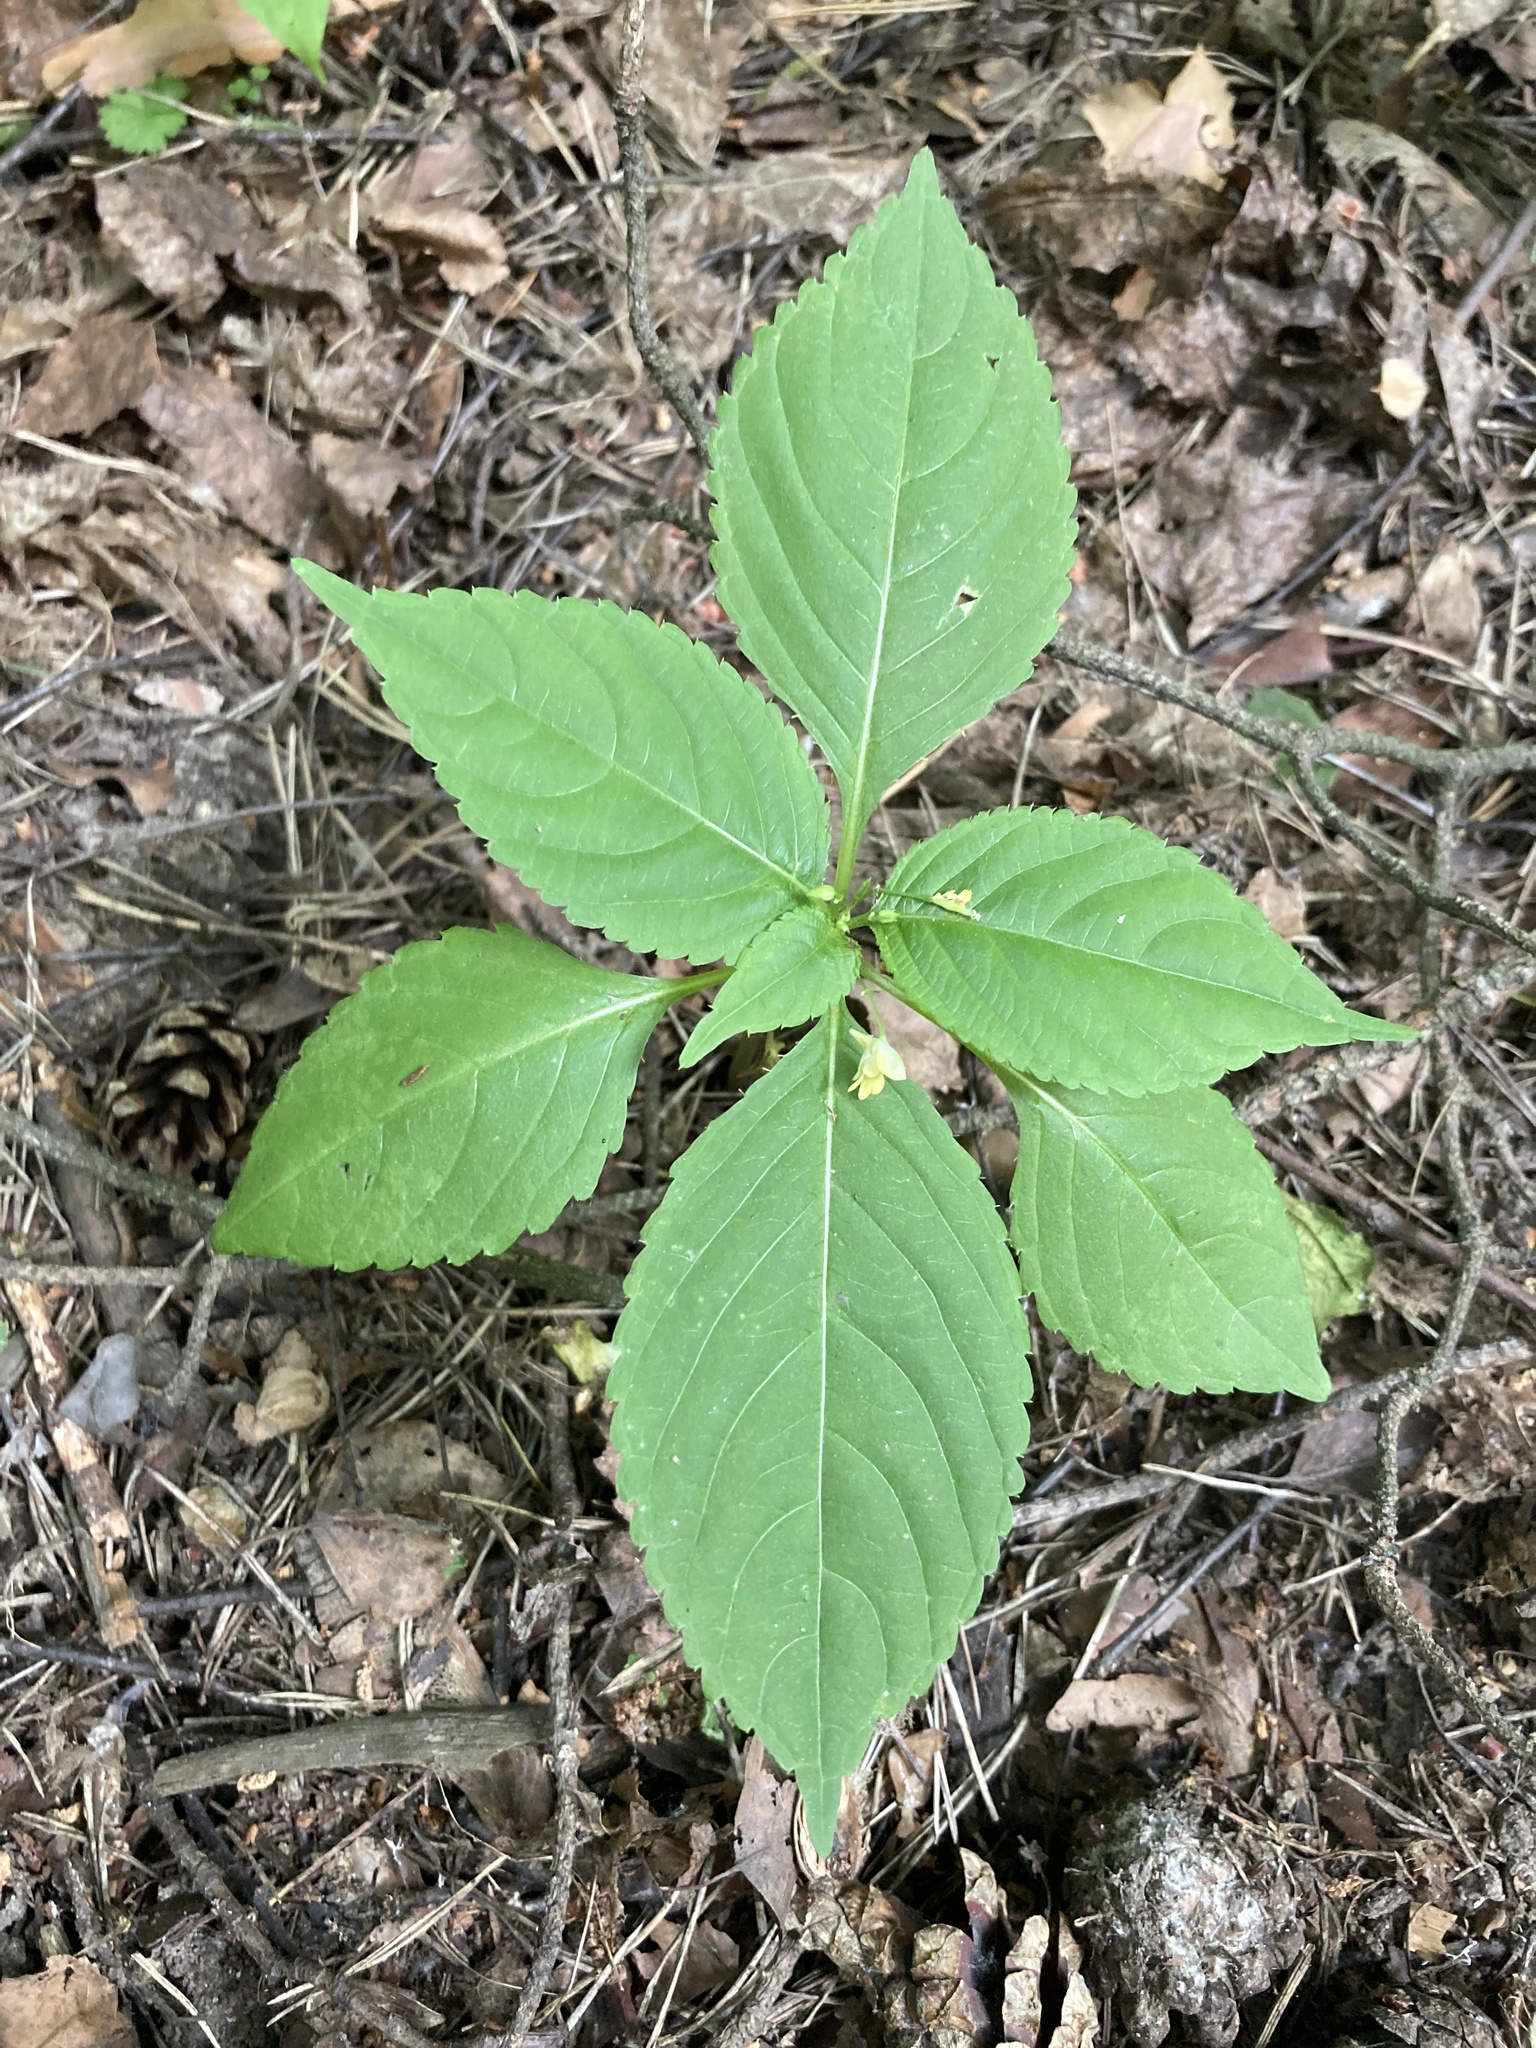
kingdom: Plantae
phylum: Tracheophyta
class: Magnoliopsida
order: Ericales
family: Balsaminaceae
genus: Impatiens
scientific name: Impatiens parviflora
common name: Small balsam
